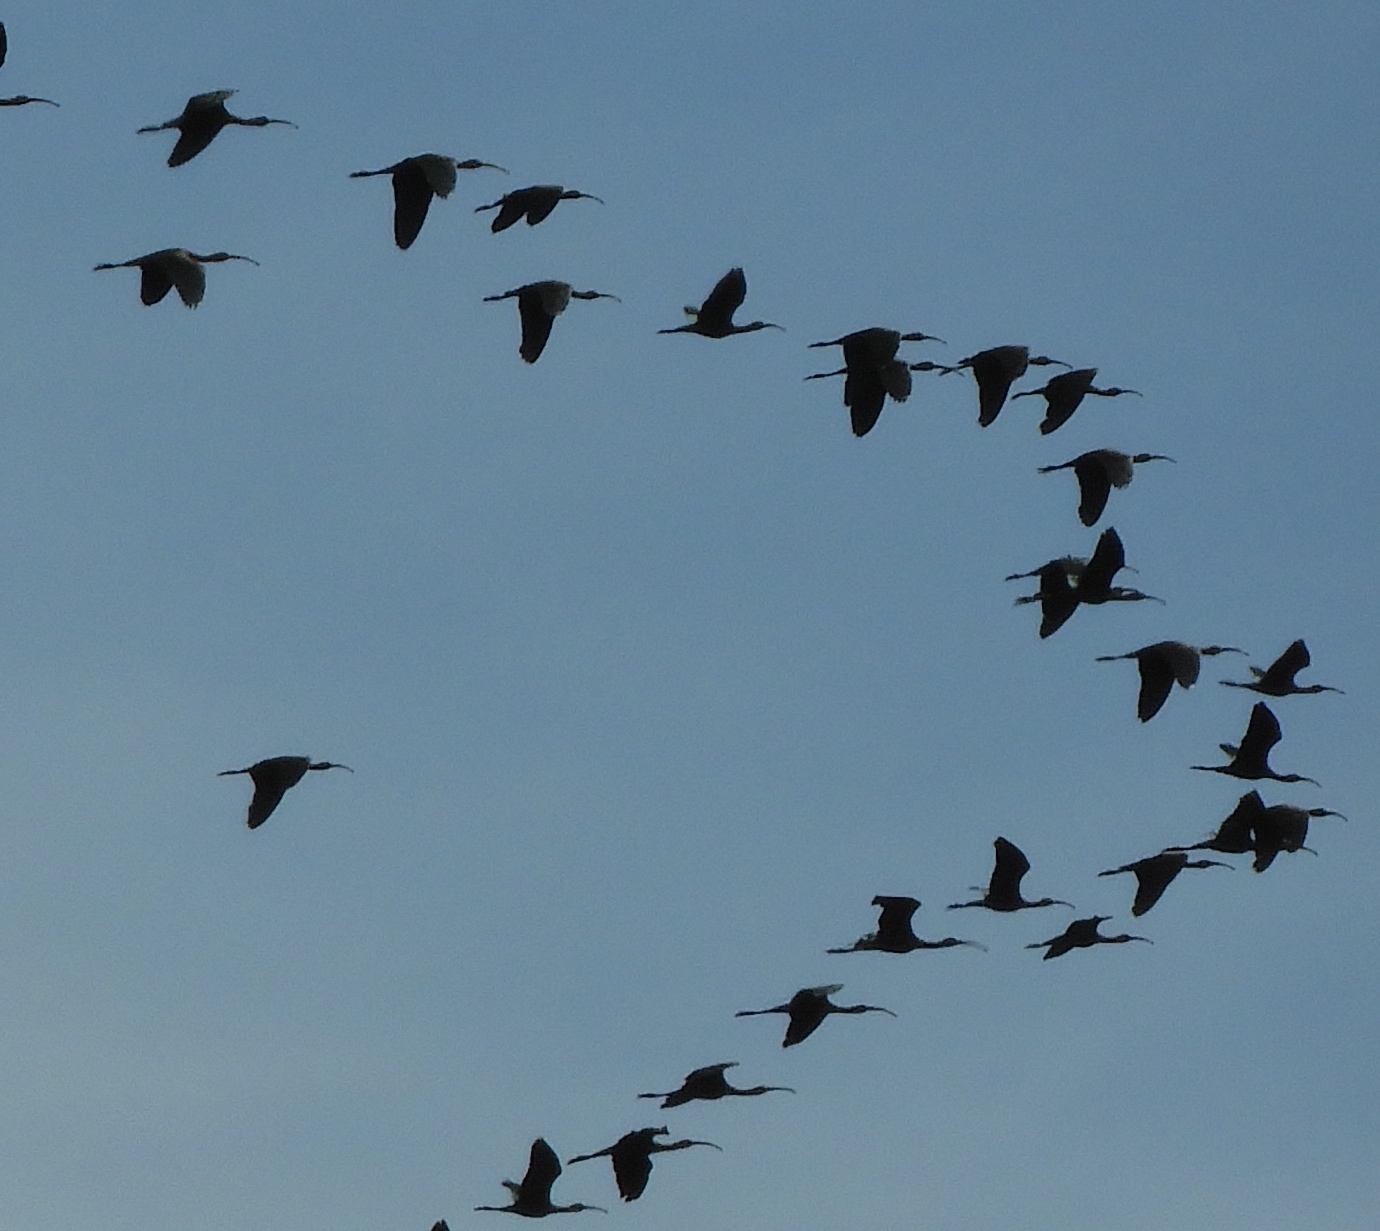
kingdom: Animalia
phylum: Chordata
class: Aves
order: Pelecaniformes
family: Threskiornithidae
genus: Plegadis
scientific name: Plegadis chihi
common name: White-faced ibis
